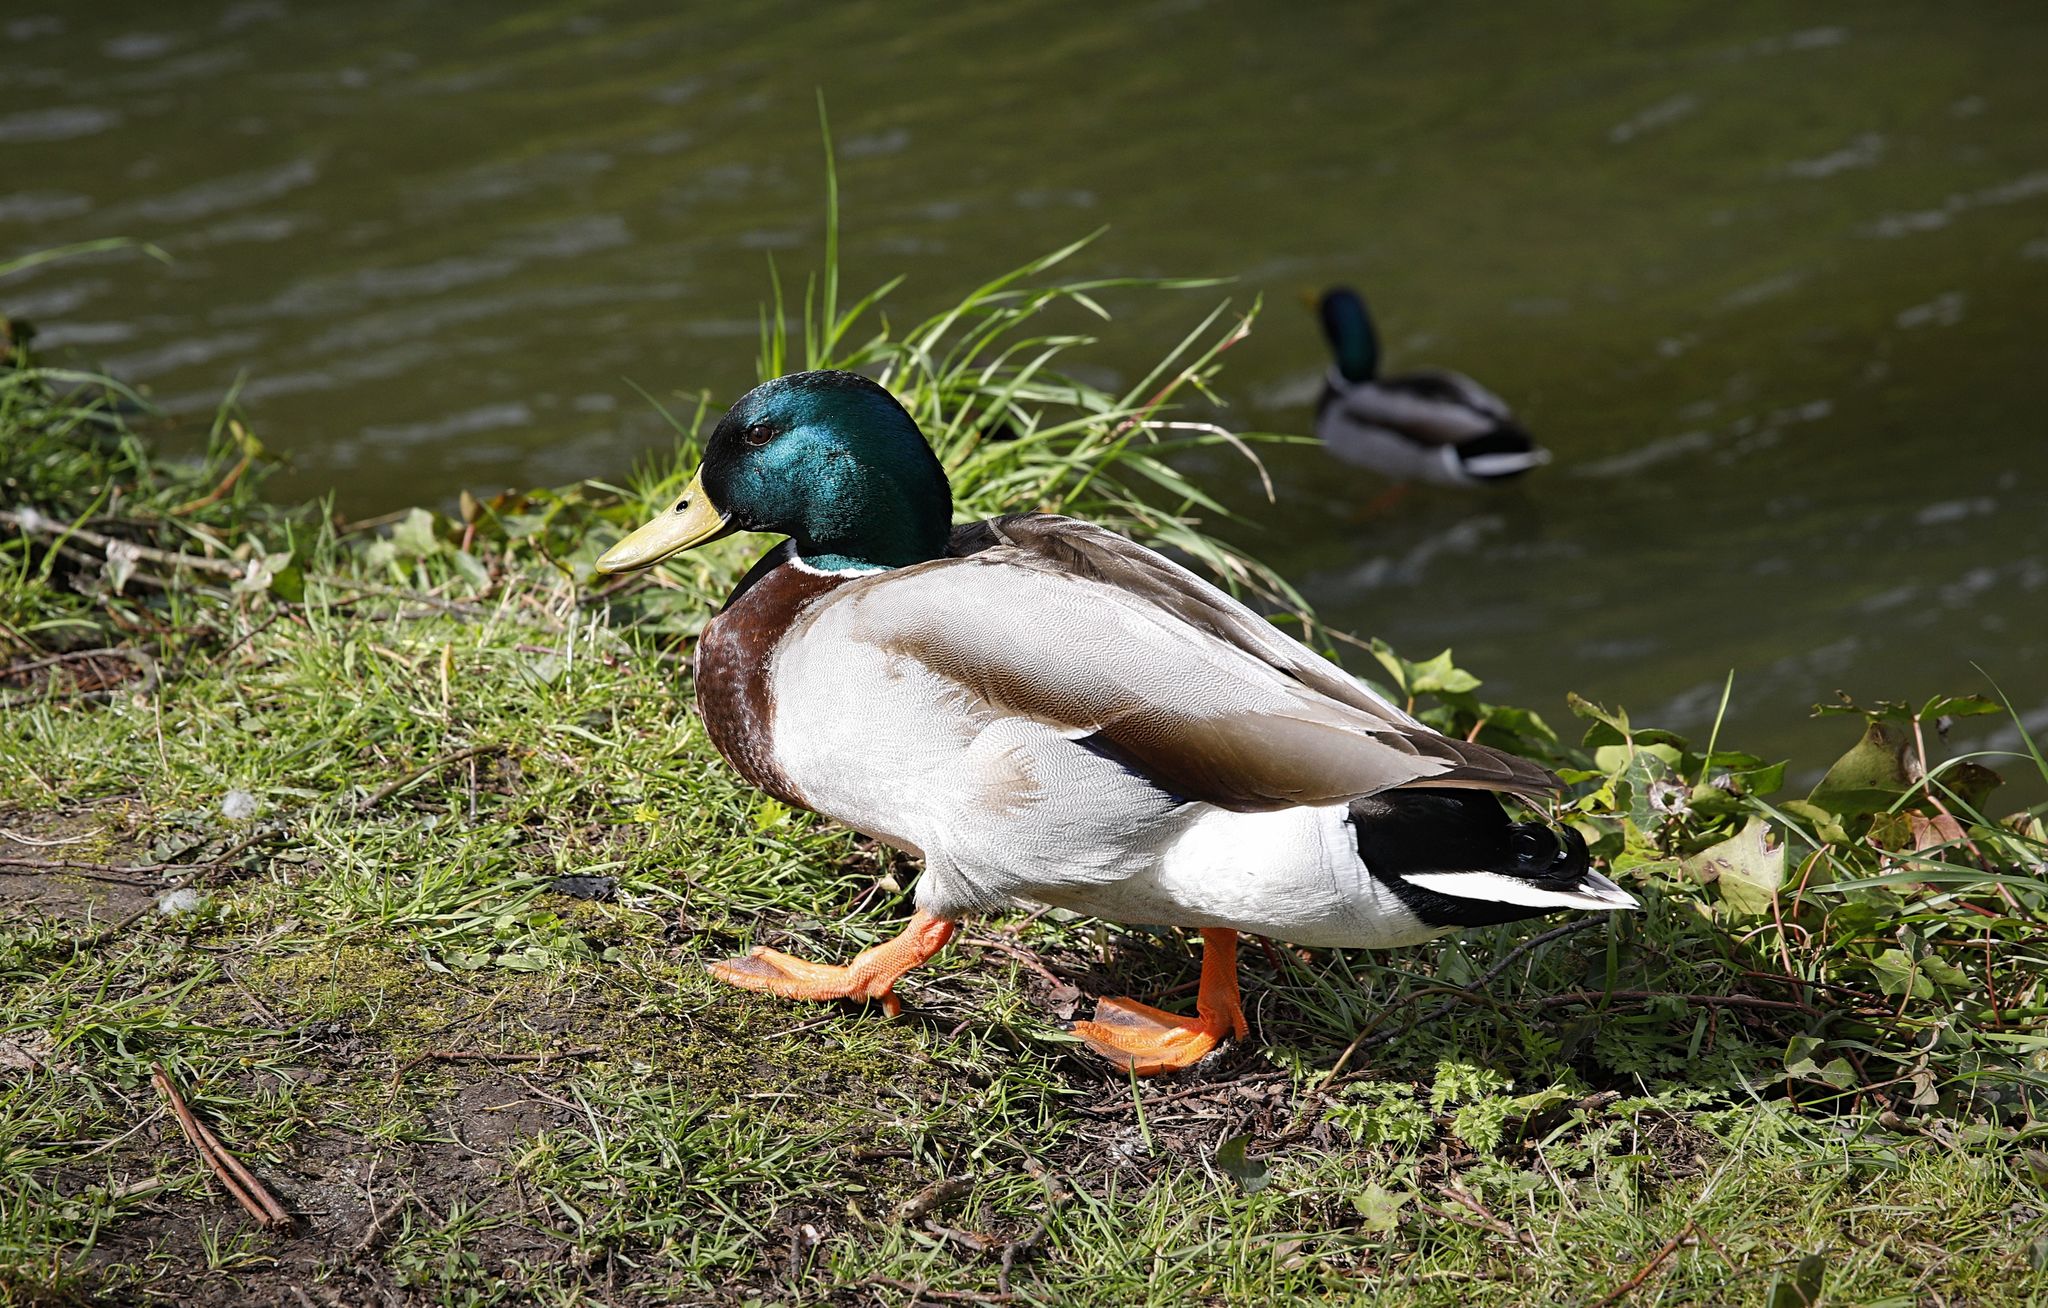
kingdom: Animalia
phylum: Chordata
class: Aves
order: Anseriformes
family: Anatidae
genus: Anas
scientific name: Anas platyrhynchos
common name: Mallard
